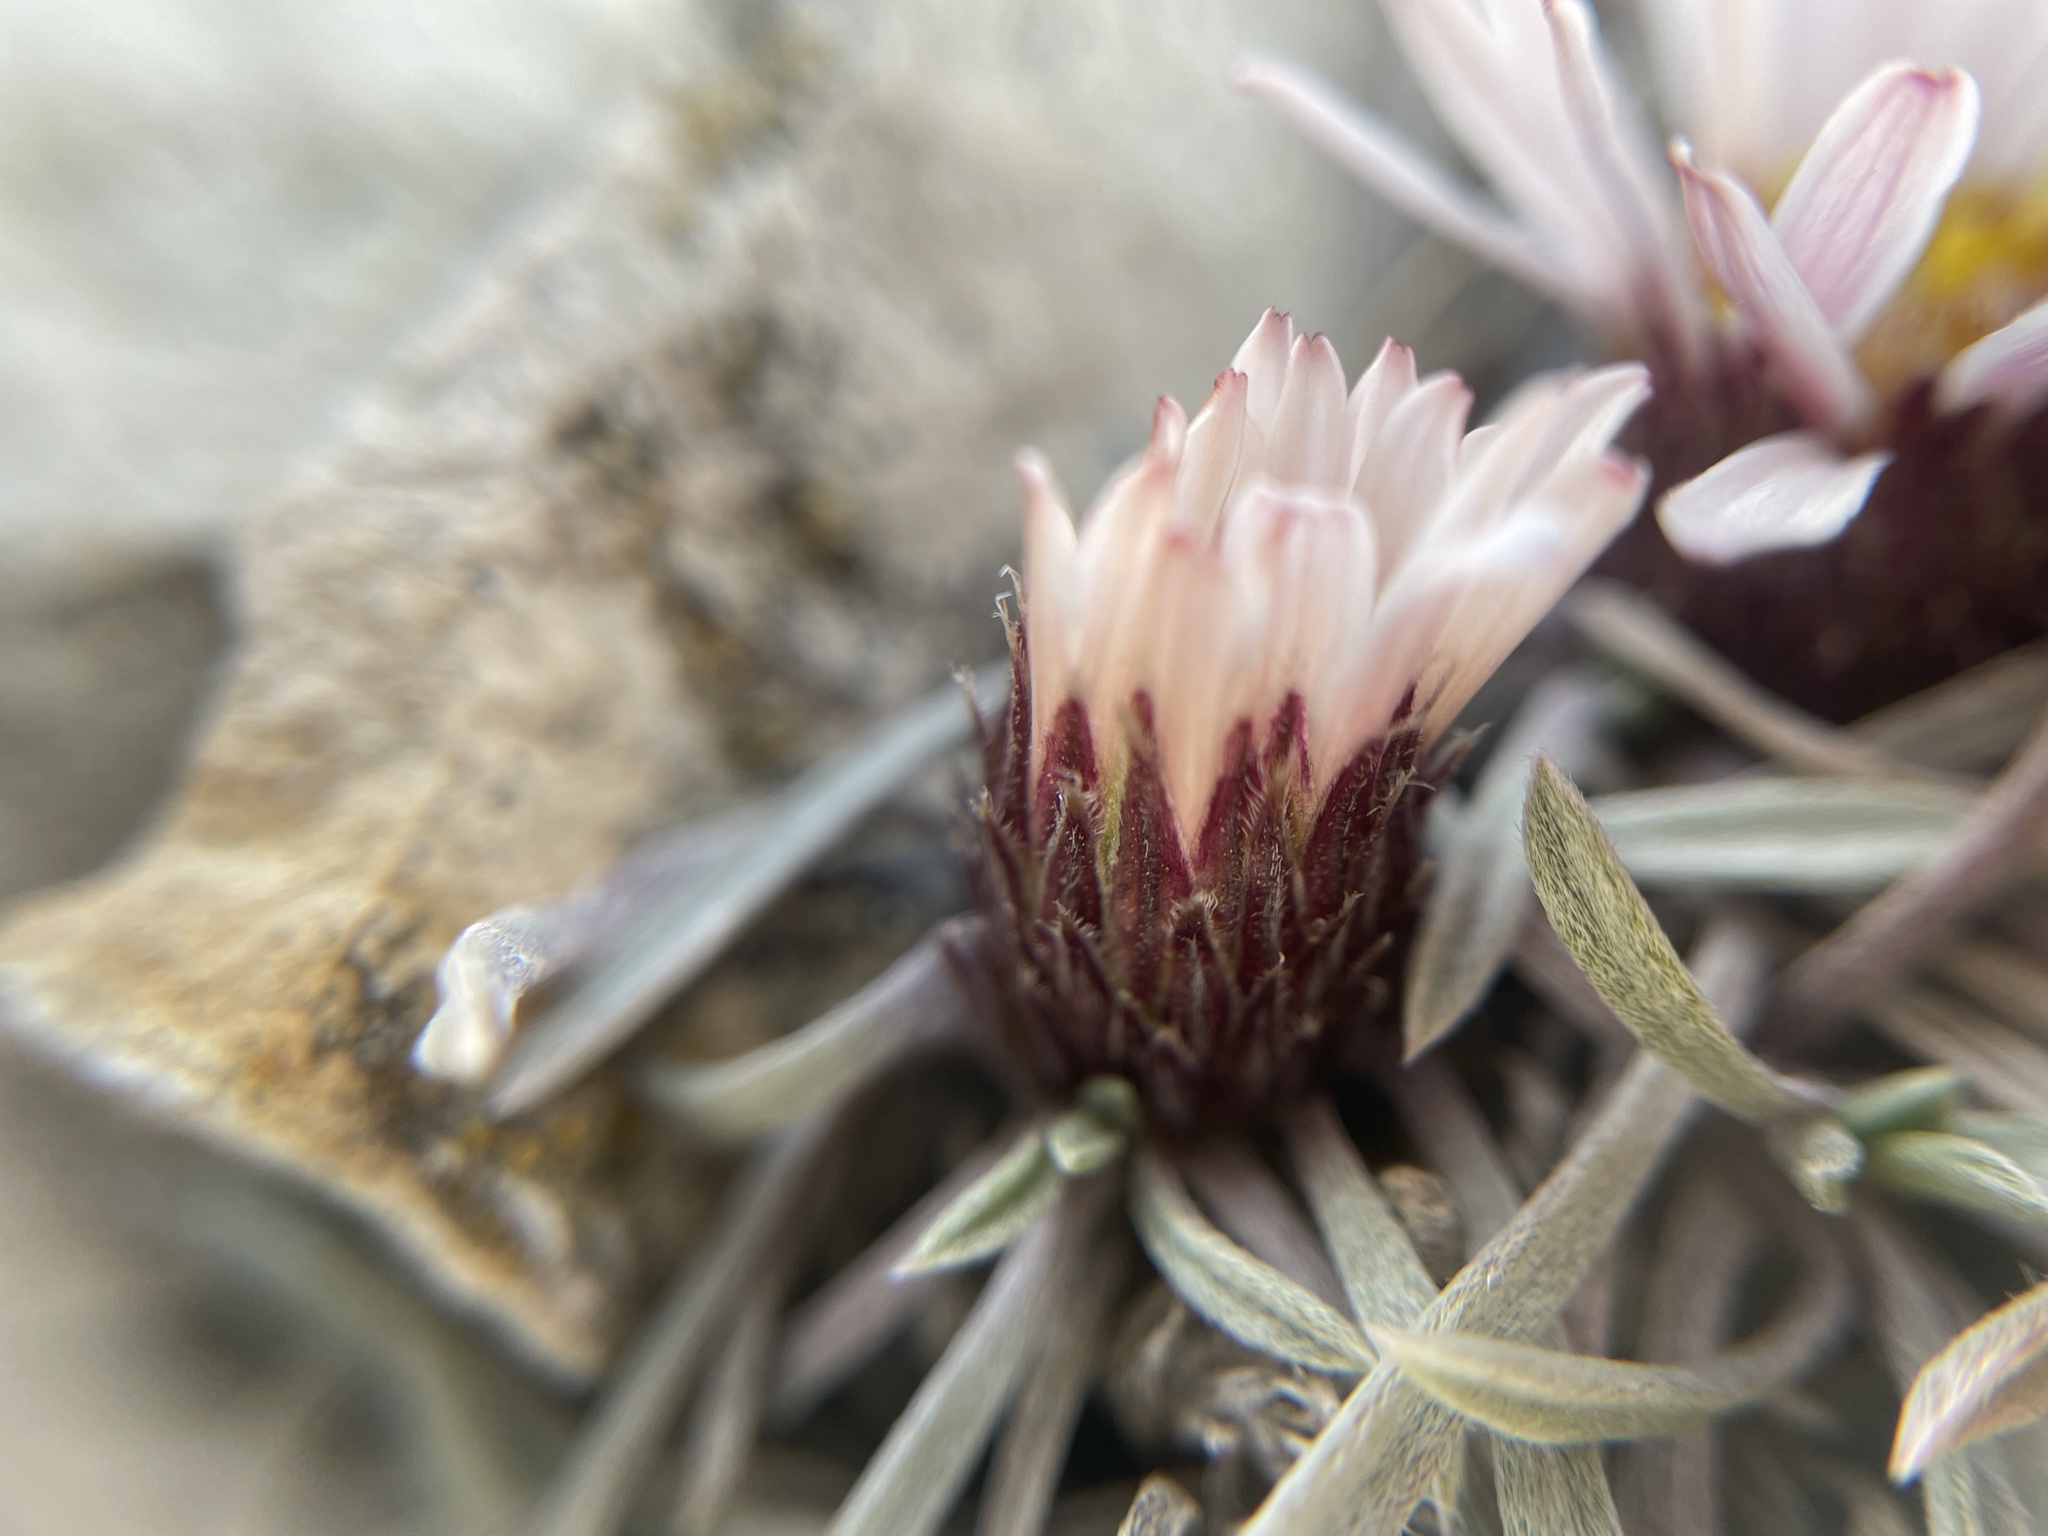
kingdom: Plantae
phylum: Tracheophyta
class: Magnoliopsida
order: Asterales
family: Asteraceae
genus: Townsendia
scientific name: Townsendia hookeri
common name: Hooker's townsend daisy
